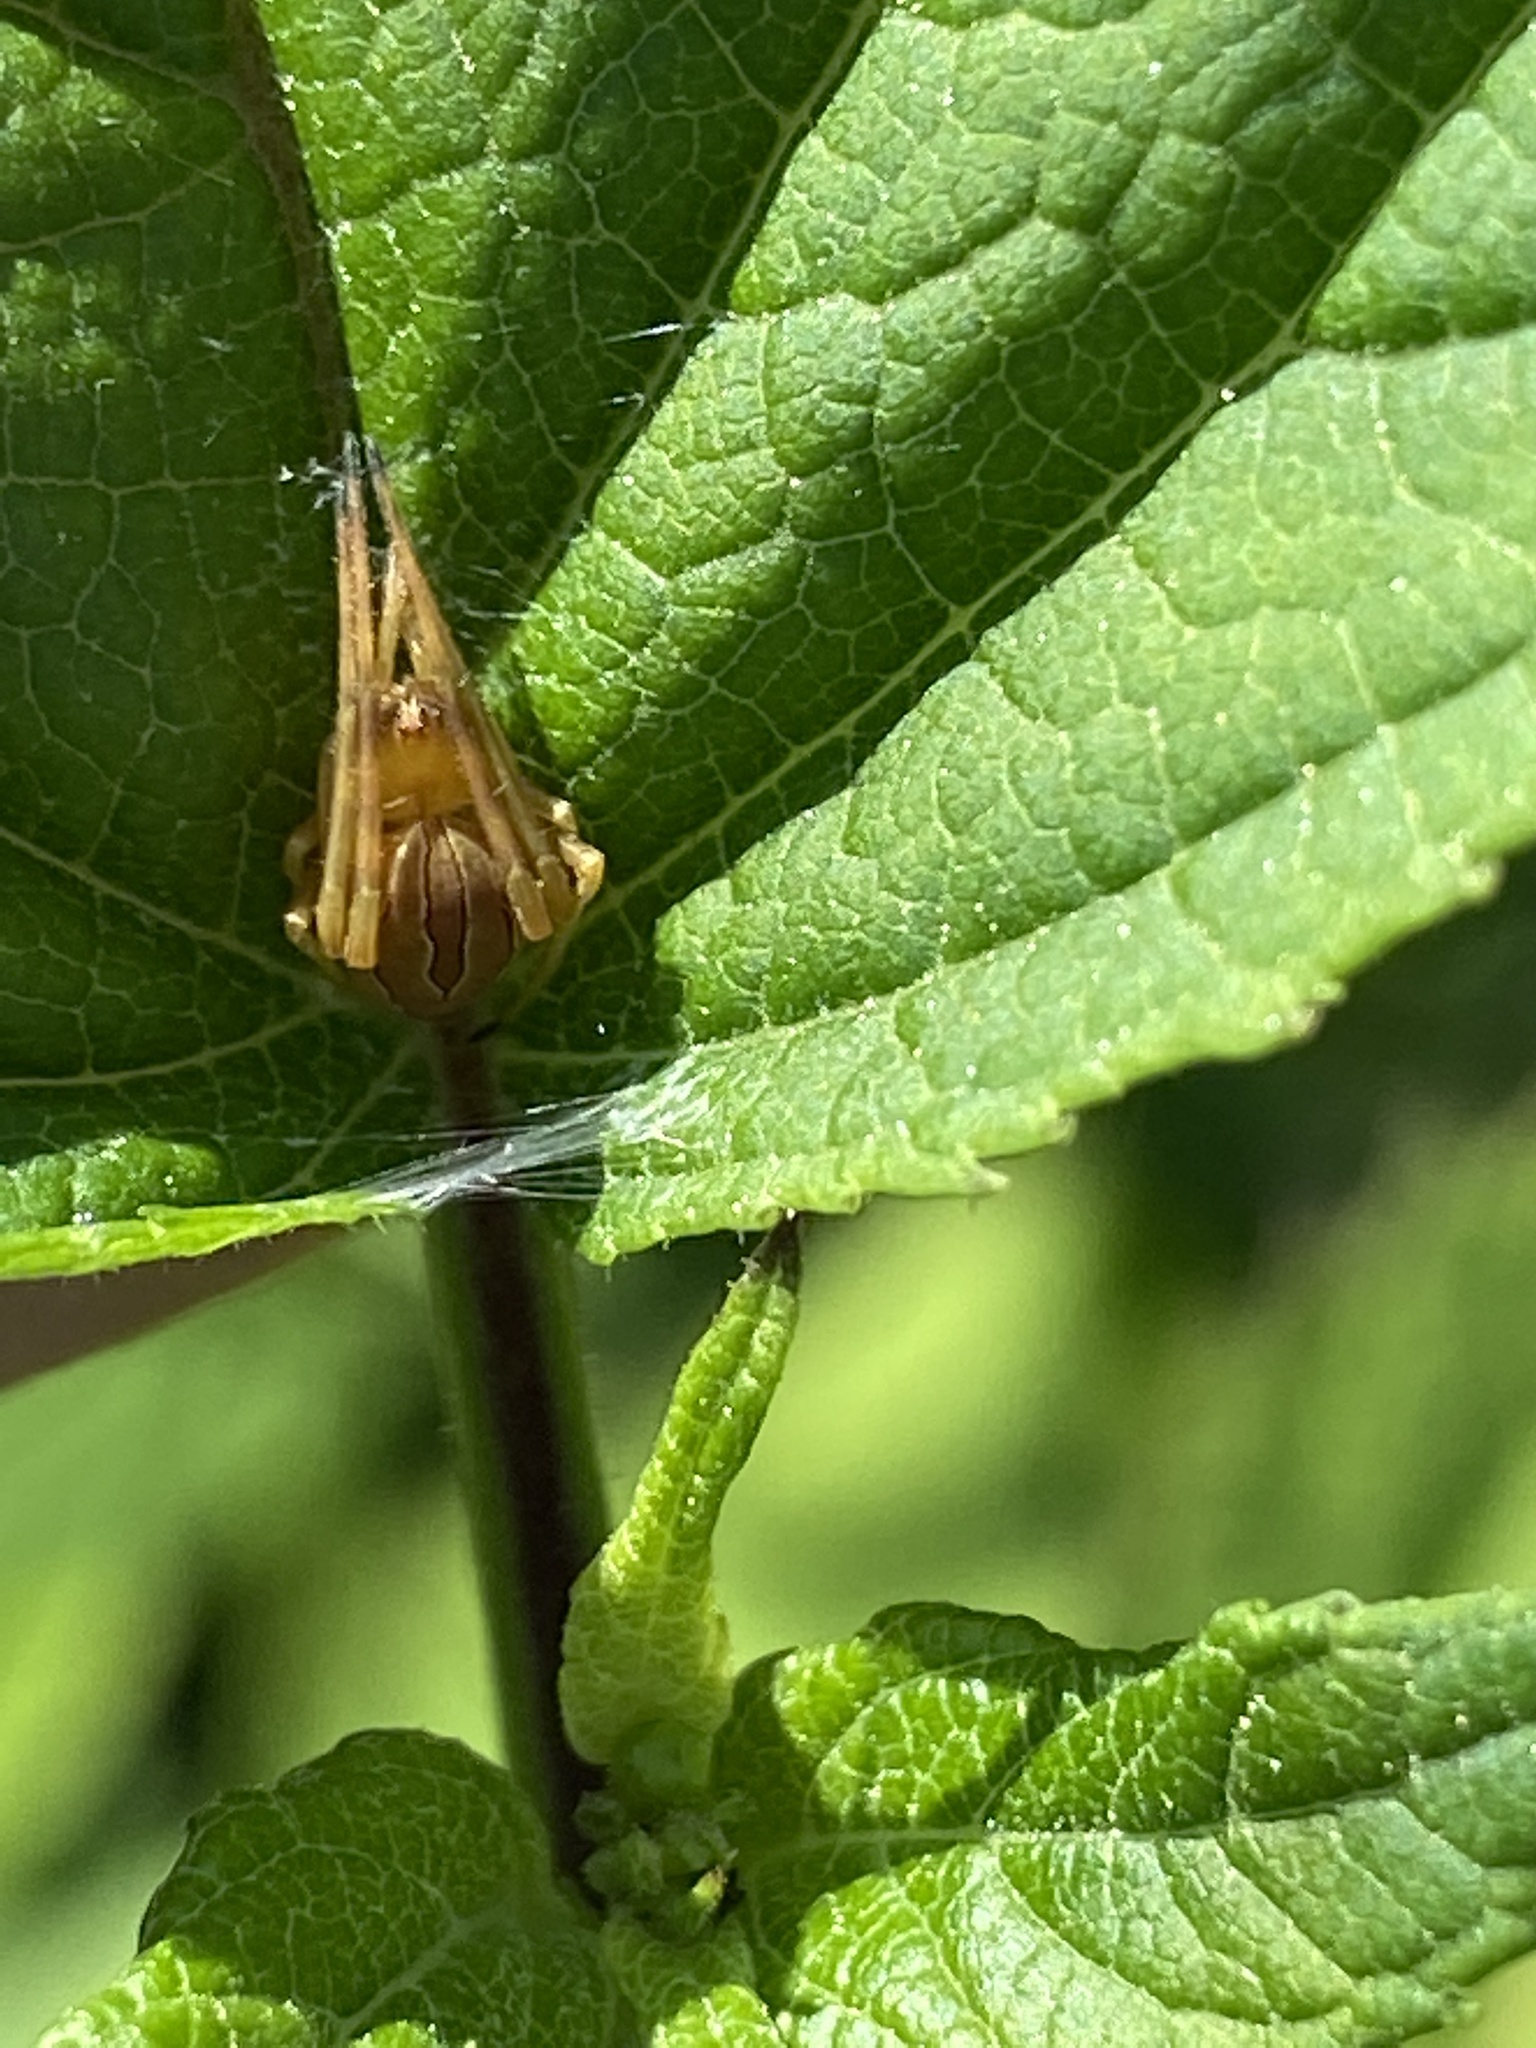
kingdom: Animalia
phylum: Arthropoda
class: Arachnida
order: Araneae
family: Araneidae
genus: Acacesia
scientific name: Acacesia hamata
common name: Orb weavers
